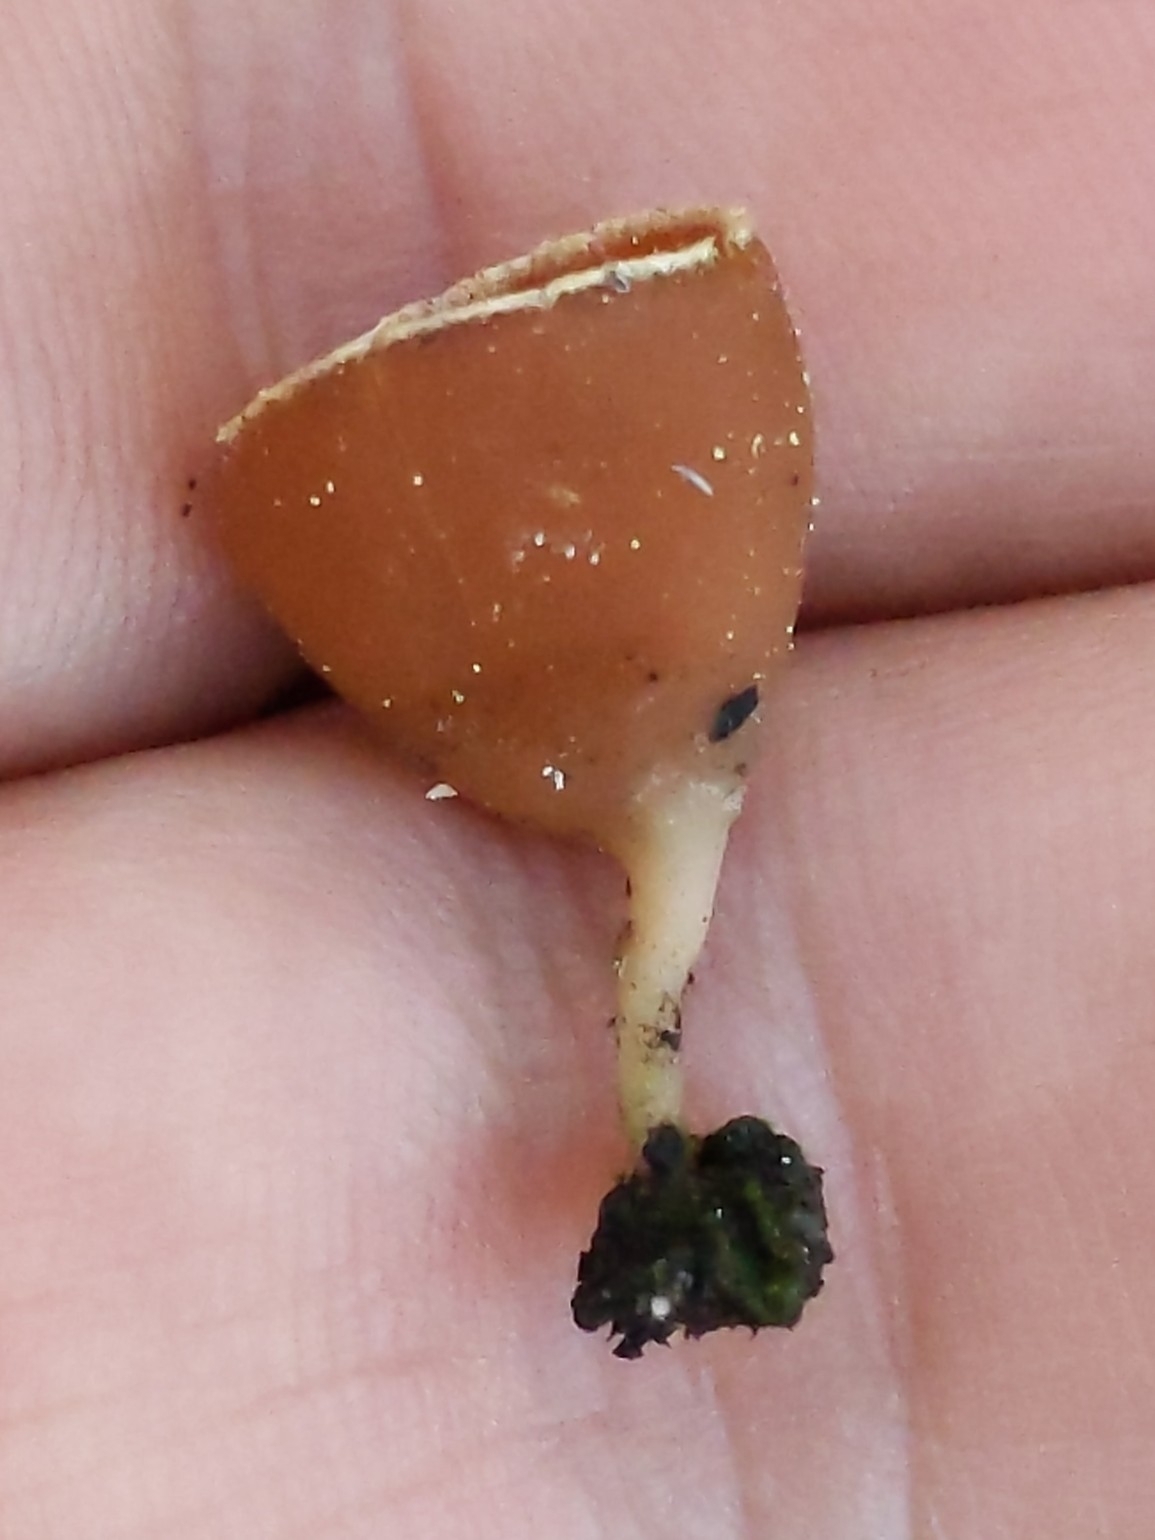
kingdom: Fungi
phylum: Ascomycota
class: Pezizomycetes
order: Pezizales
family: Pyronemataceae
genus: Geopyxis
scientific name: Geopyxis carbonaria
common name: Stalked bonfire cup
